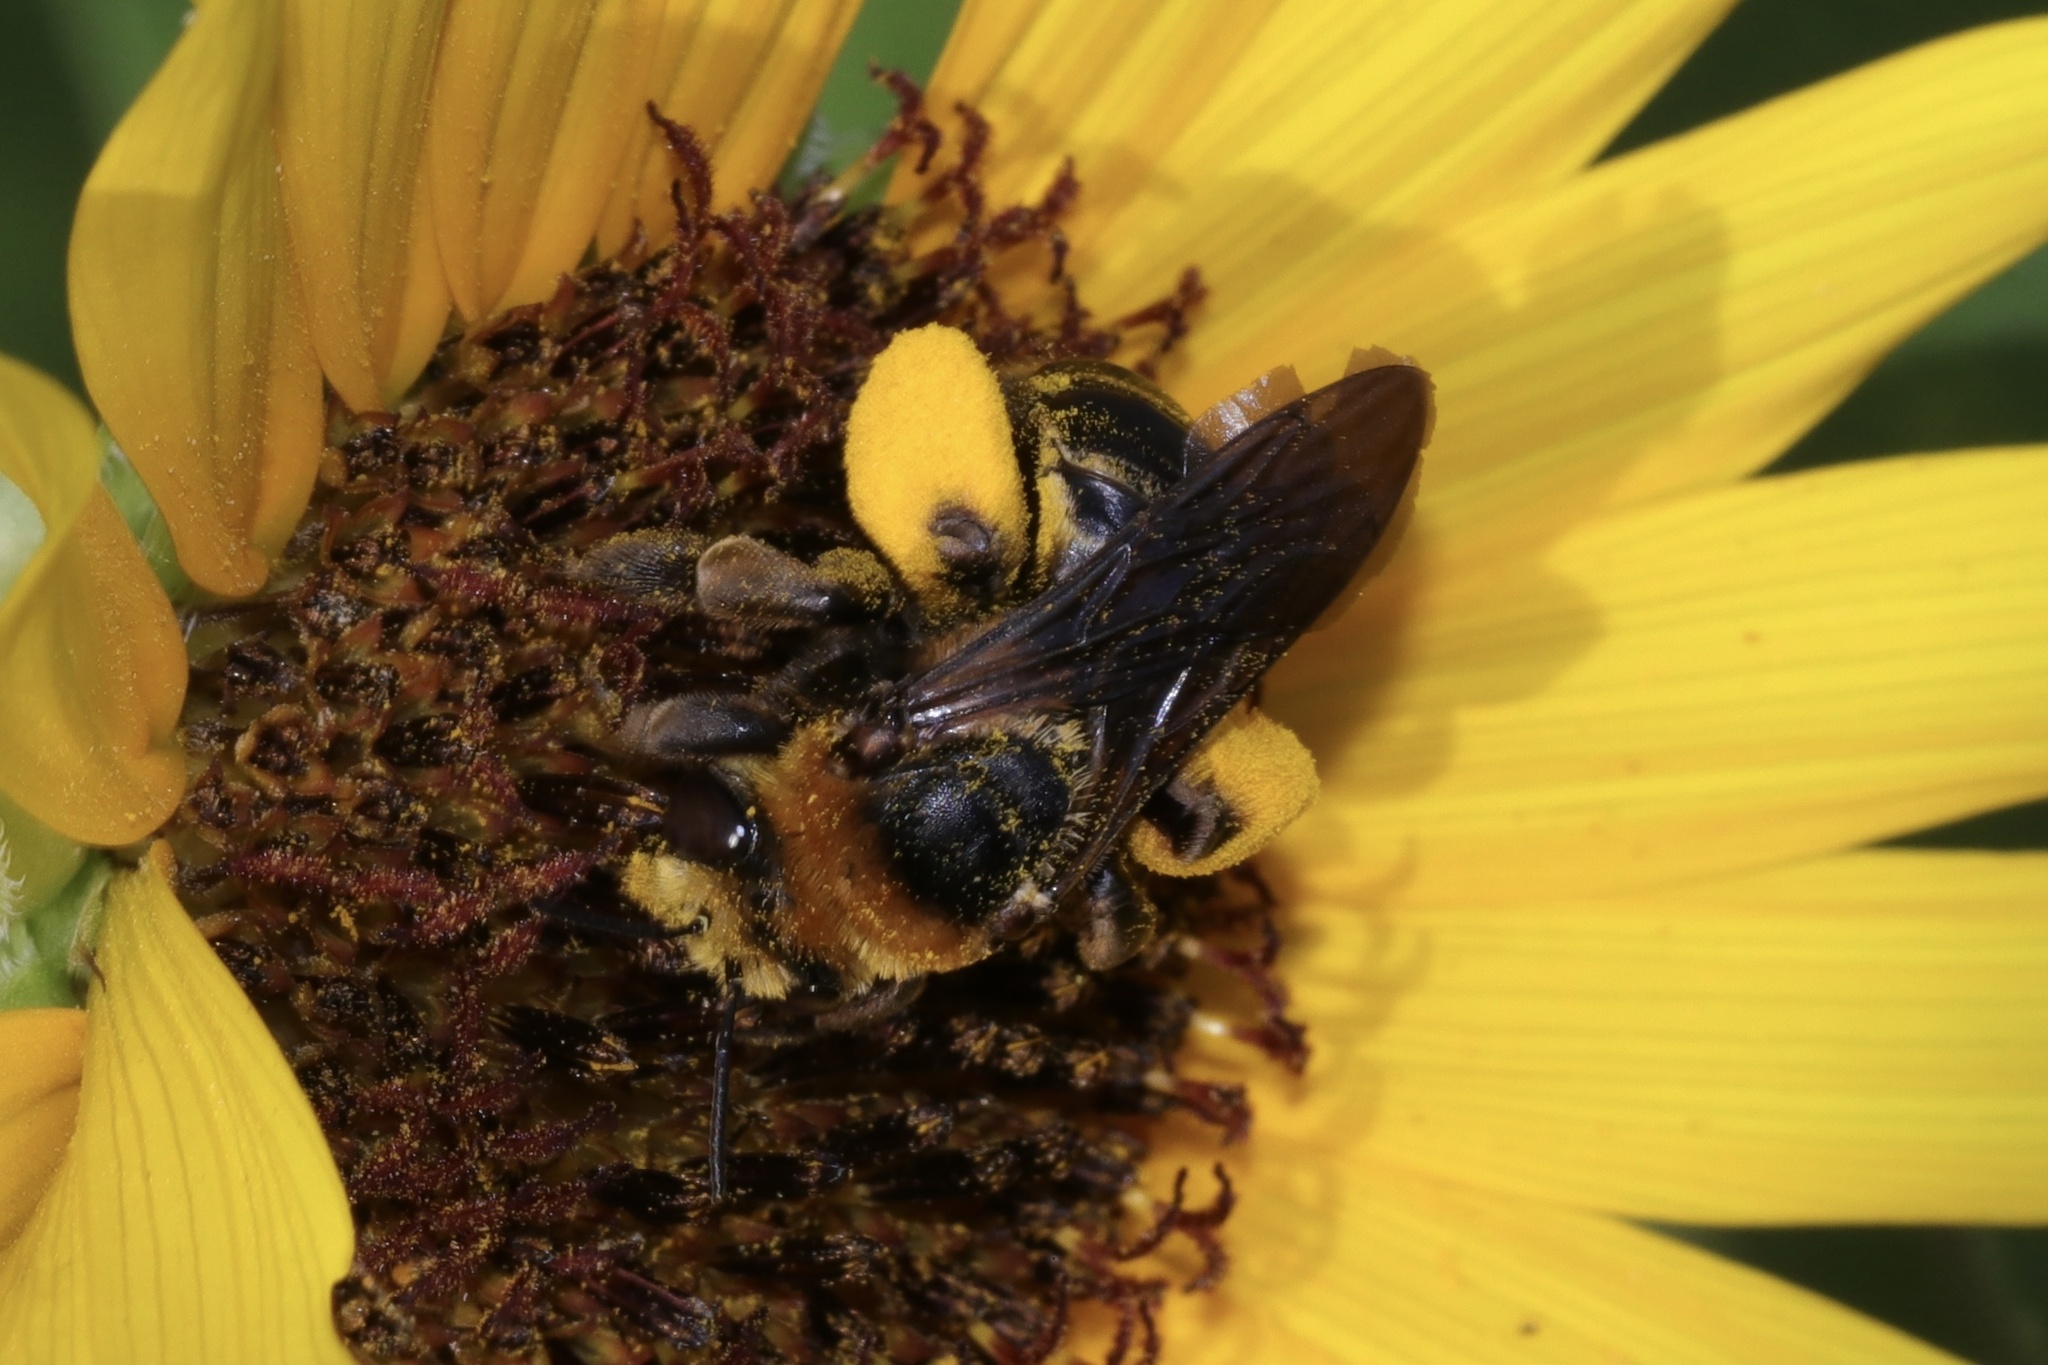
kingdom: Animalia
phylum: Arthropoda
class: Insecta
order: Hymenoptera
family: Apidae
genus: Svastra
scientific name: Svastra obliqua
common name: Oblique longhorn
